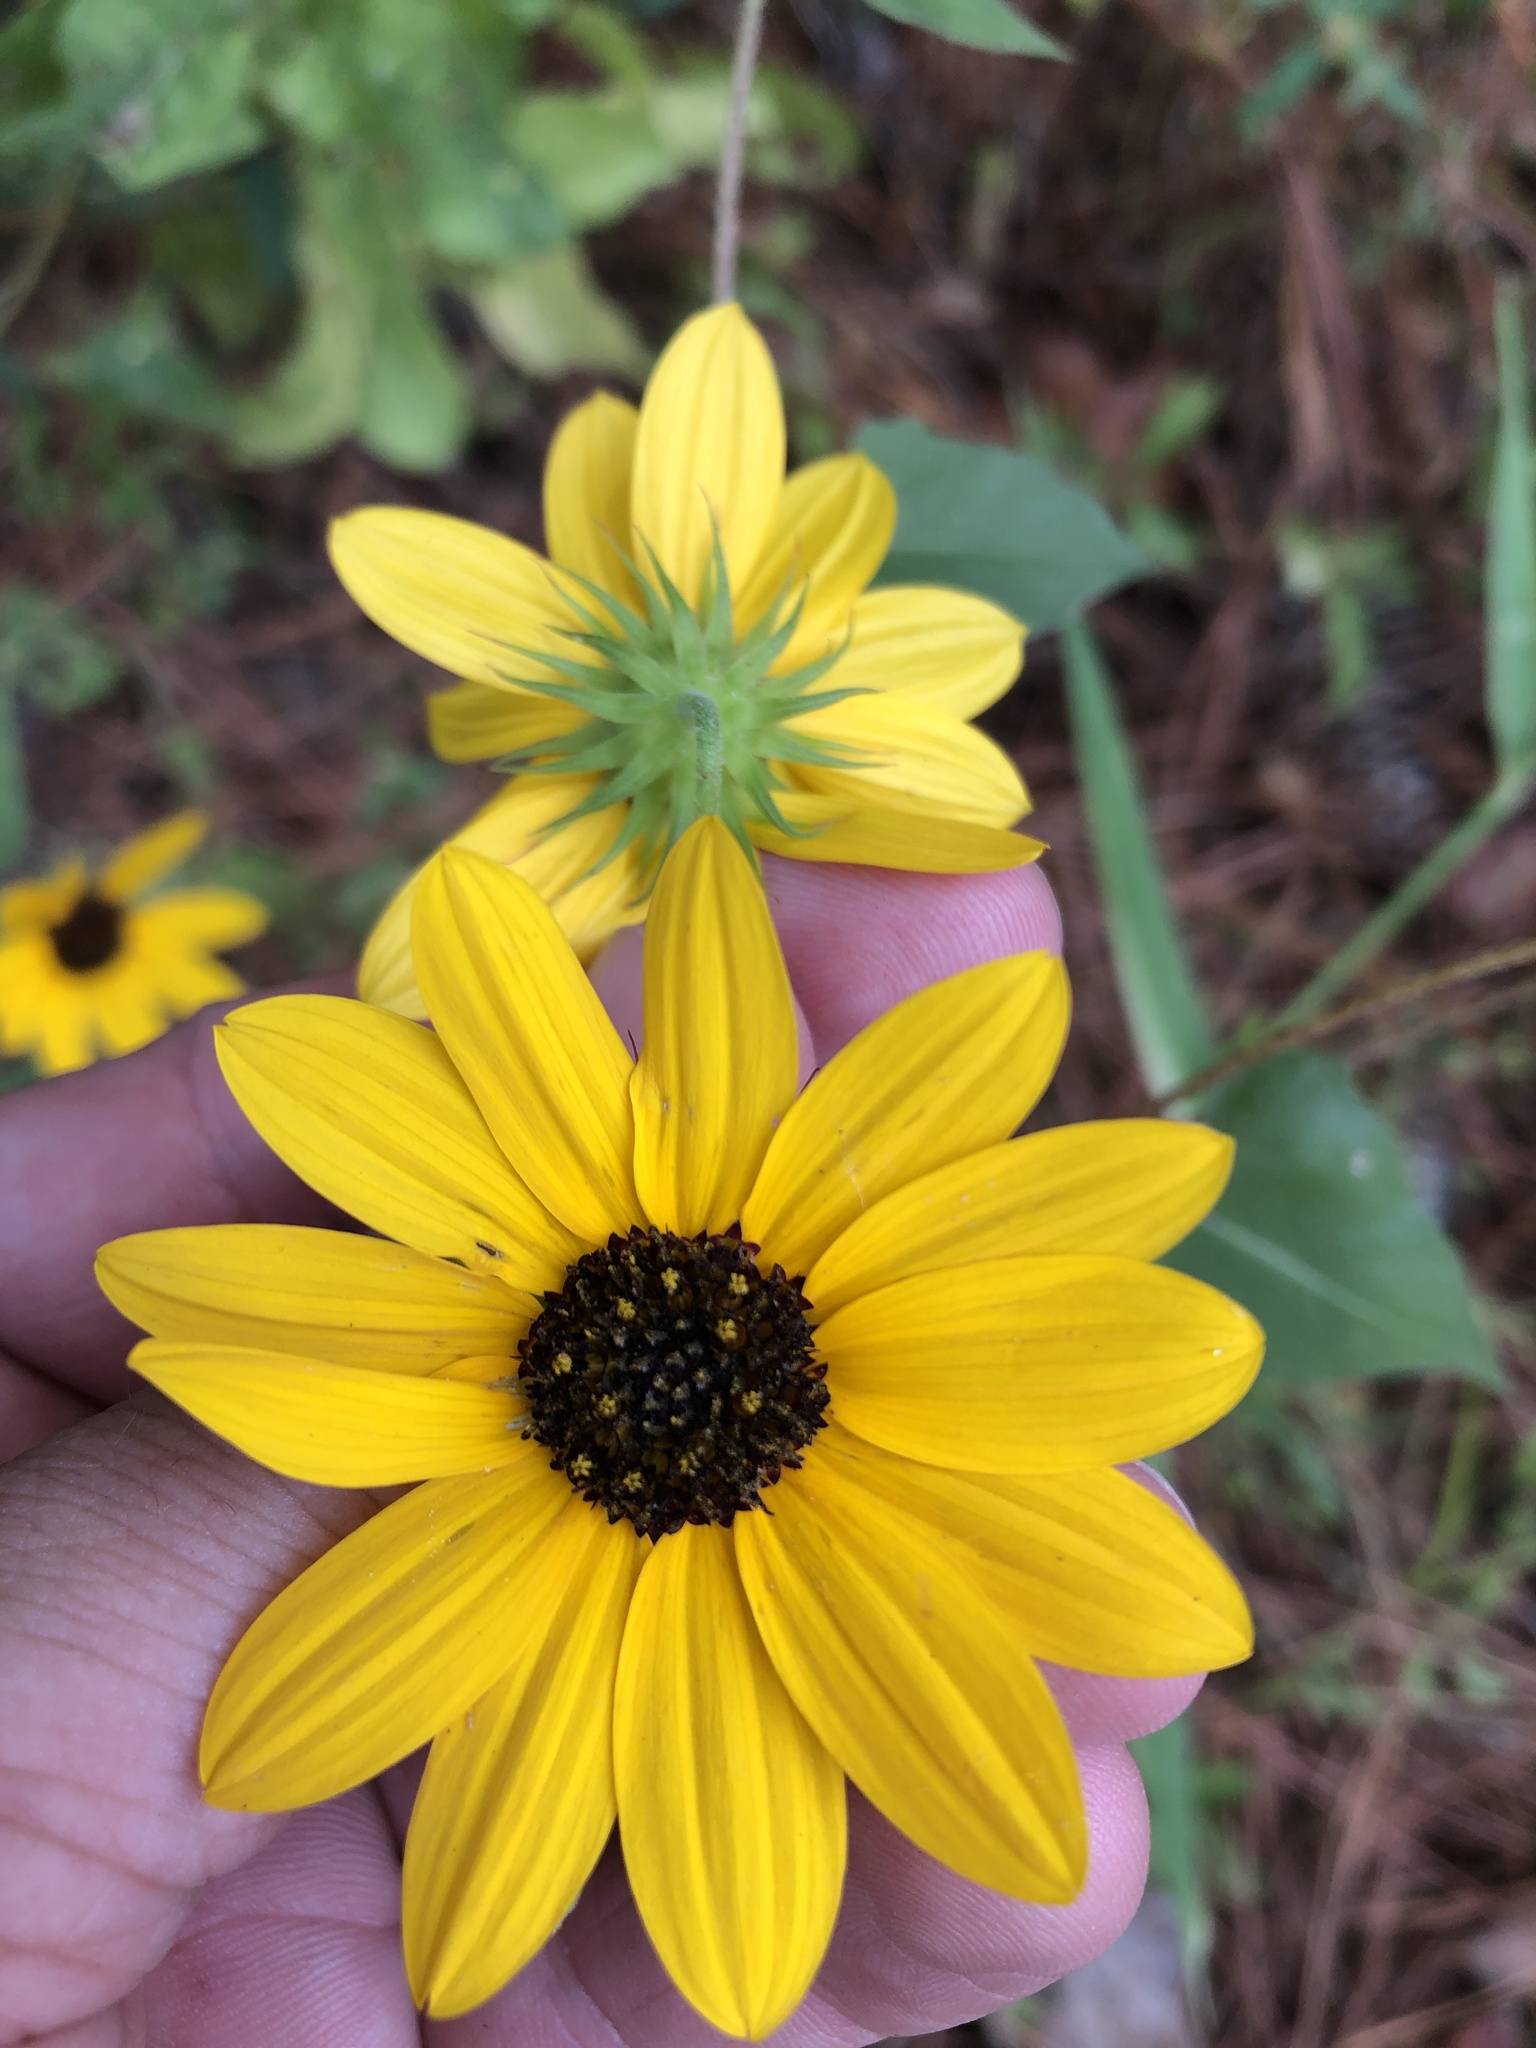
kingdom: Plantae
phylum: Tracheophyta
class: Magnoliopsida
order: Asterales
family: Asteraceae
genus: Helianthus
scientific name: Helianthus debilis
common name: Weak sunflower
